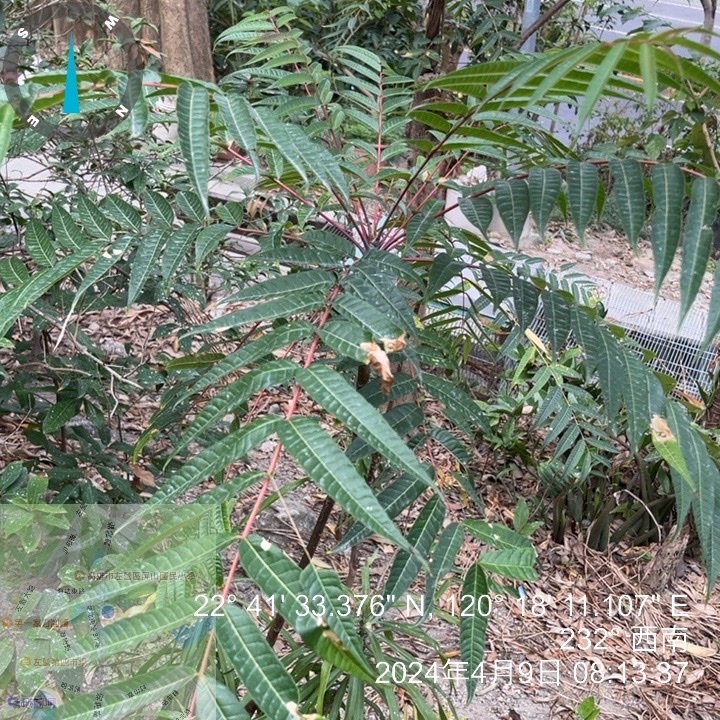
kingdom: Plantae
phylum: Tracheophyta
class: Magnoliopsida
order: Sapindales
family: Meliaceae
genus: Toona
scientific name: Toona sinensis
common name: Red toon
